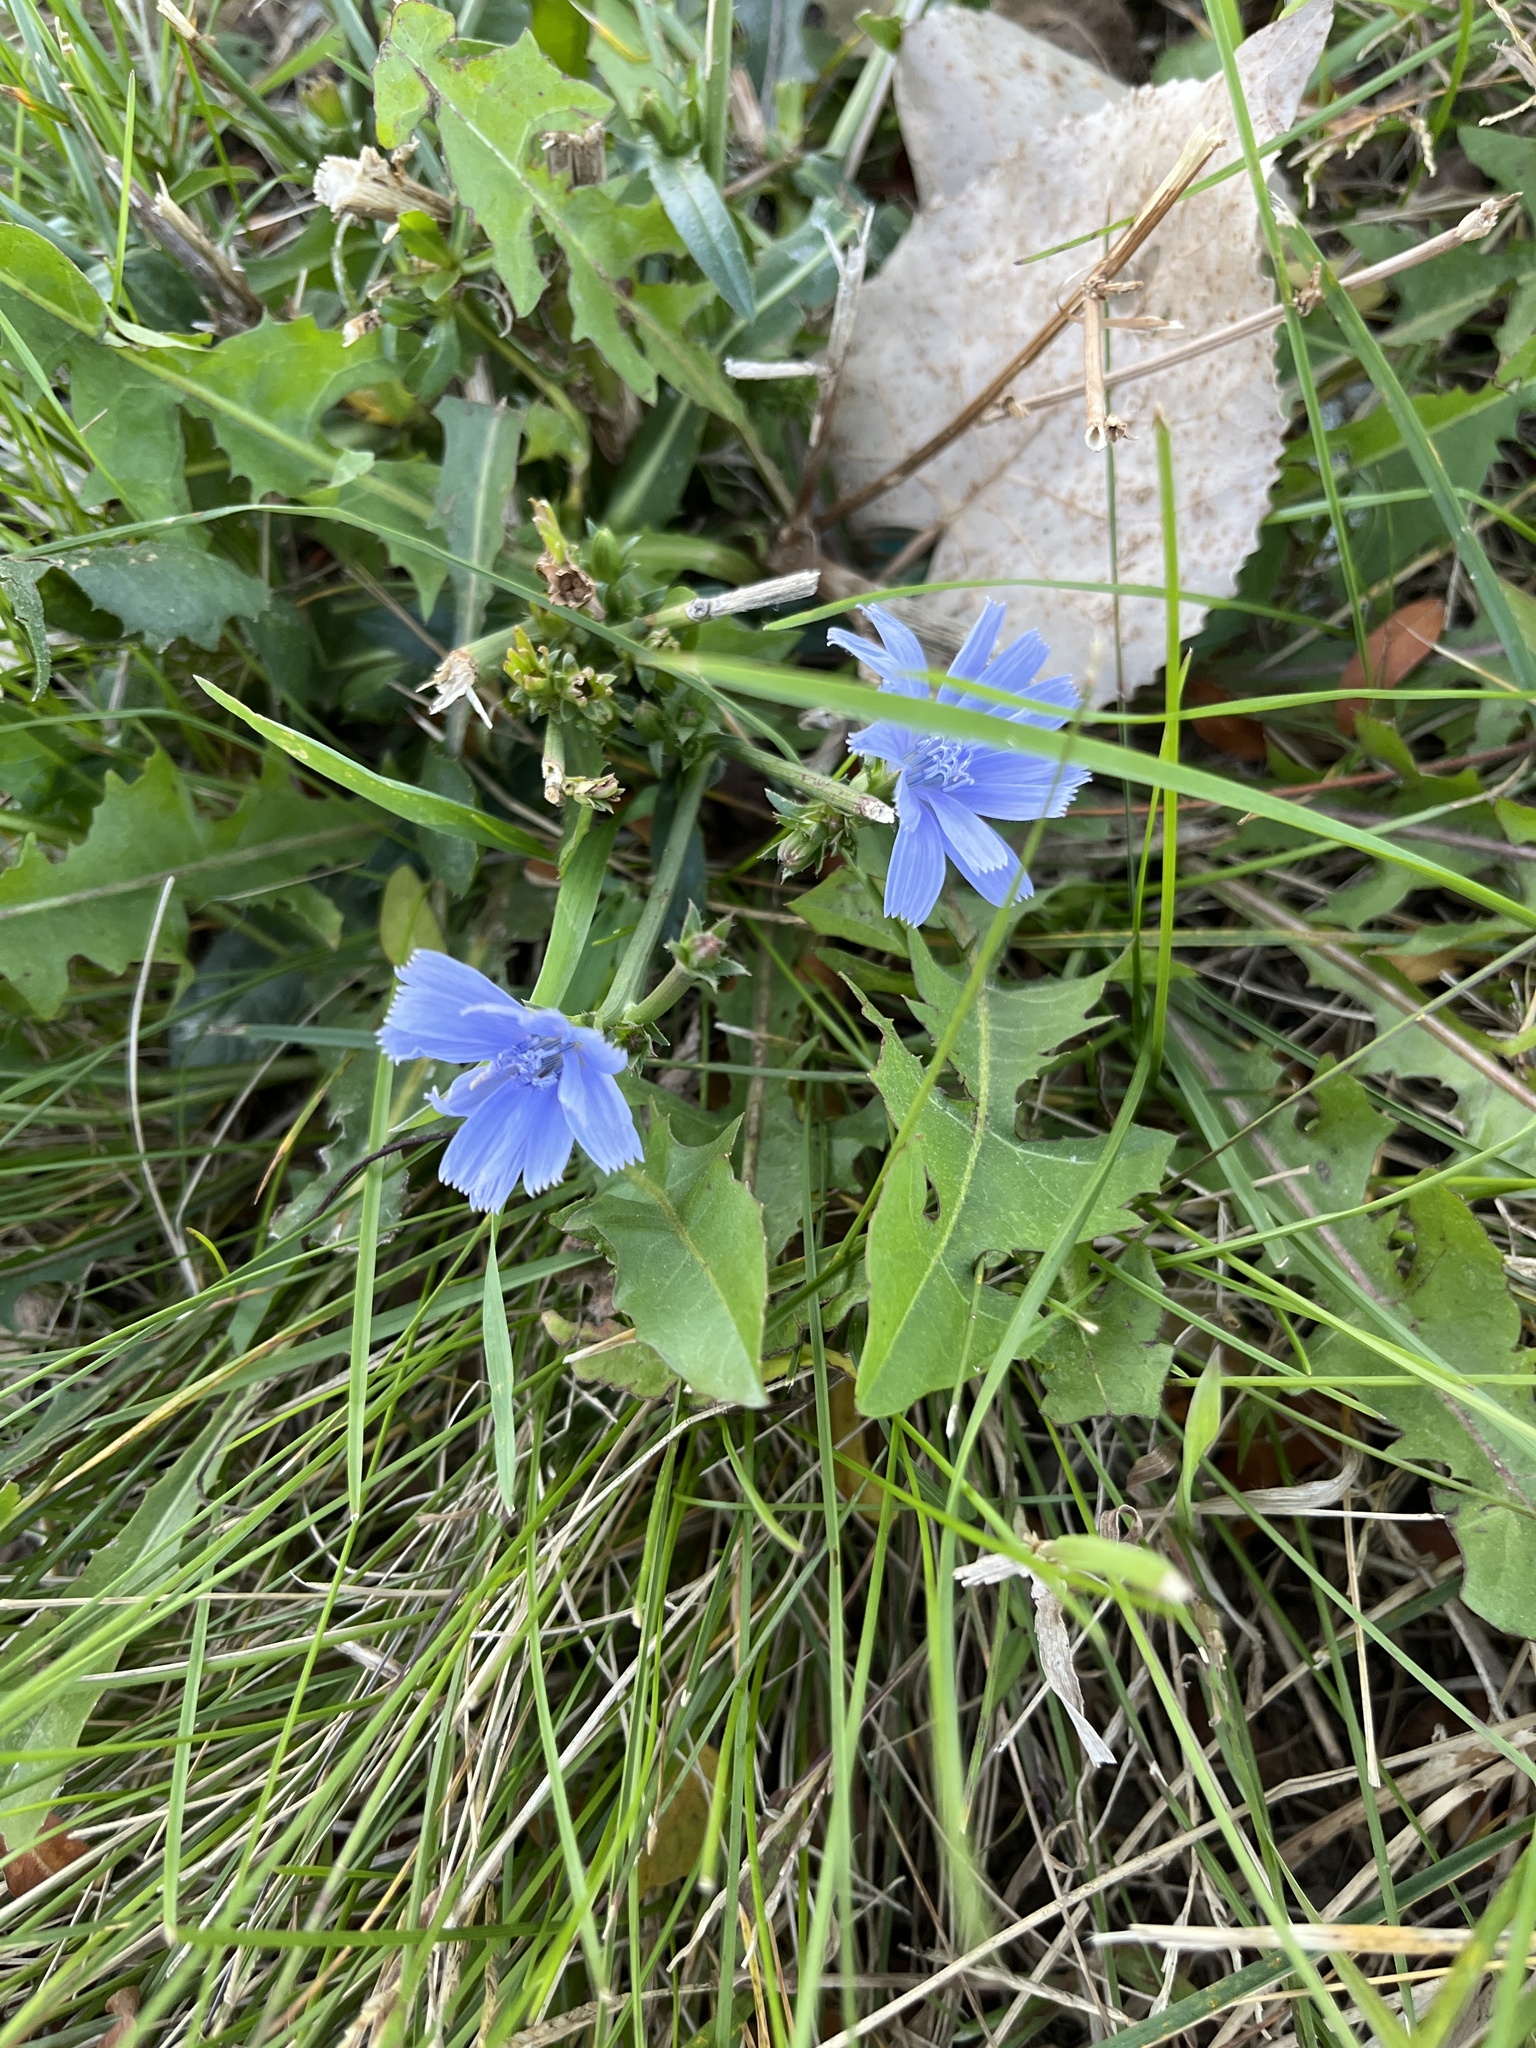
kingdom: Plantae
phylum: Tracheophyta
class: Magnoliopsida
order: Asterales
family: Asteraceae
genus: Cichorium
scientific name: Cichorium intybus
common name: Chicory
